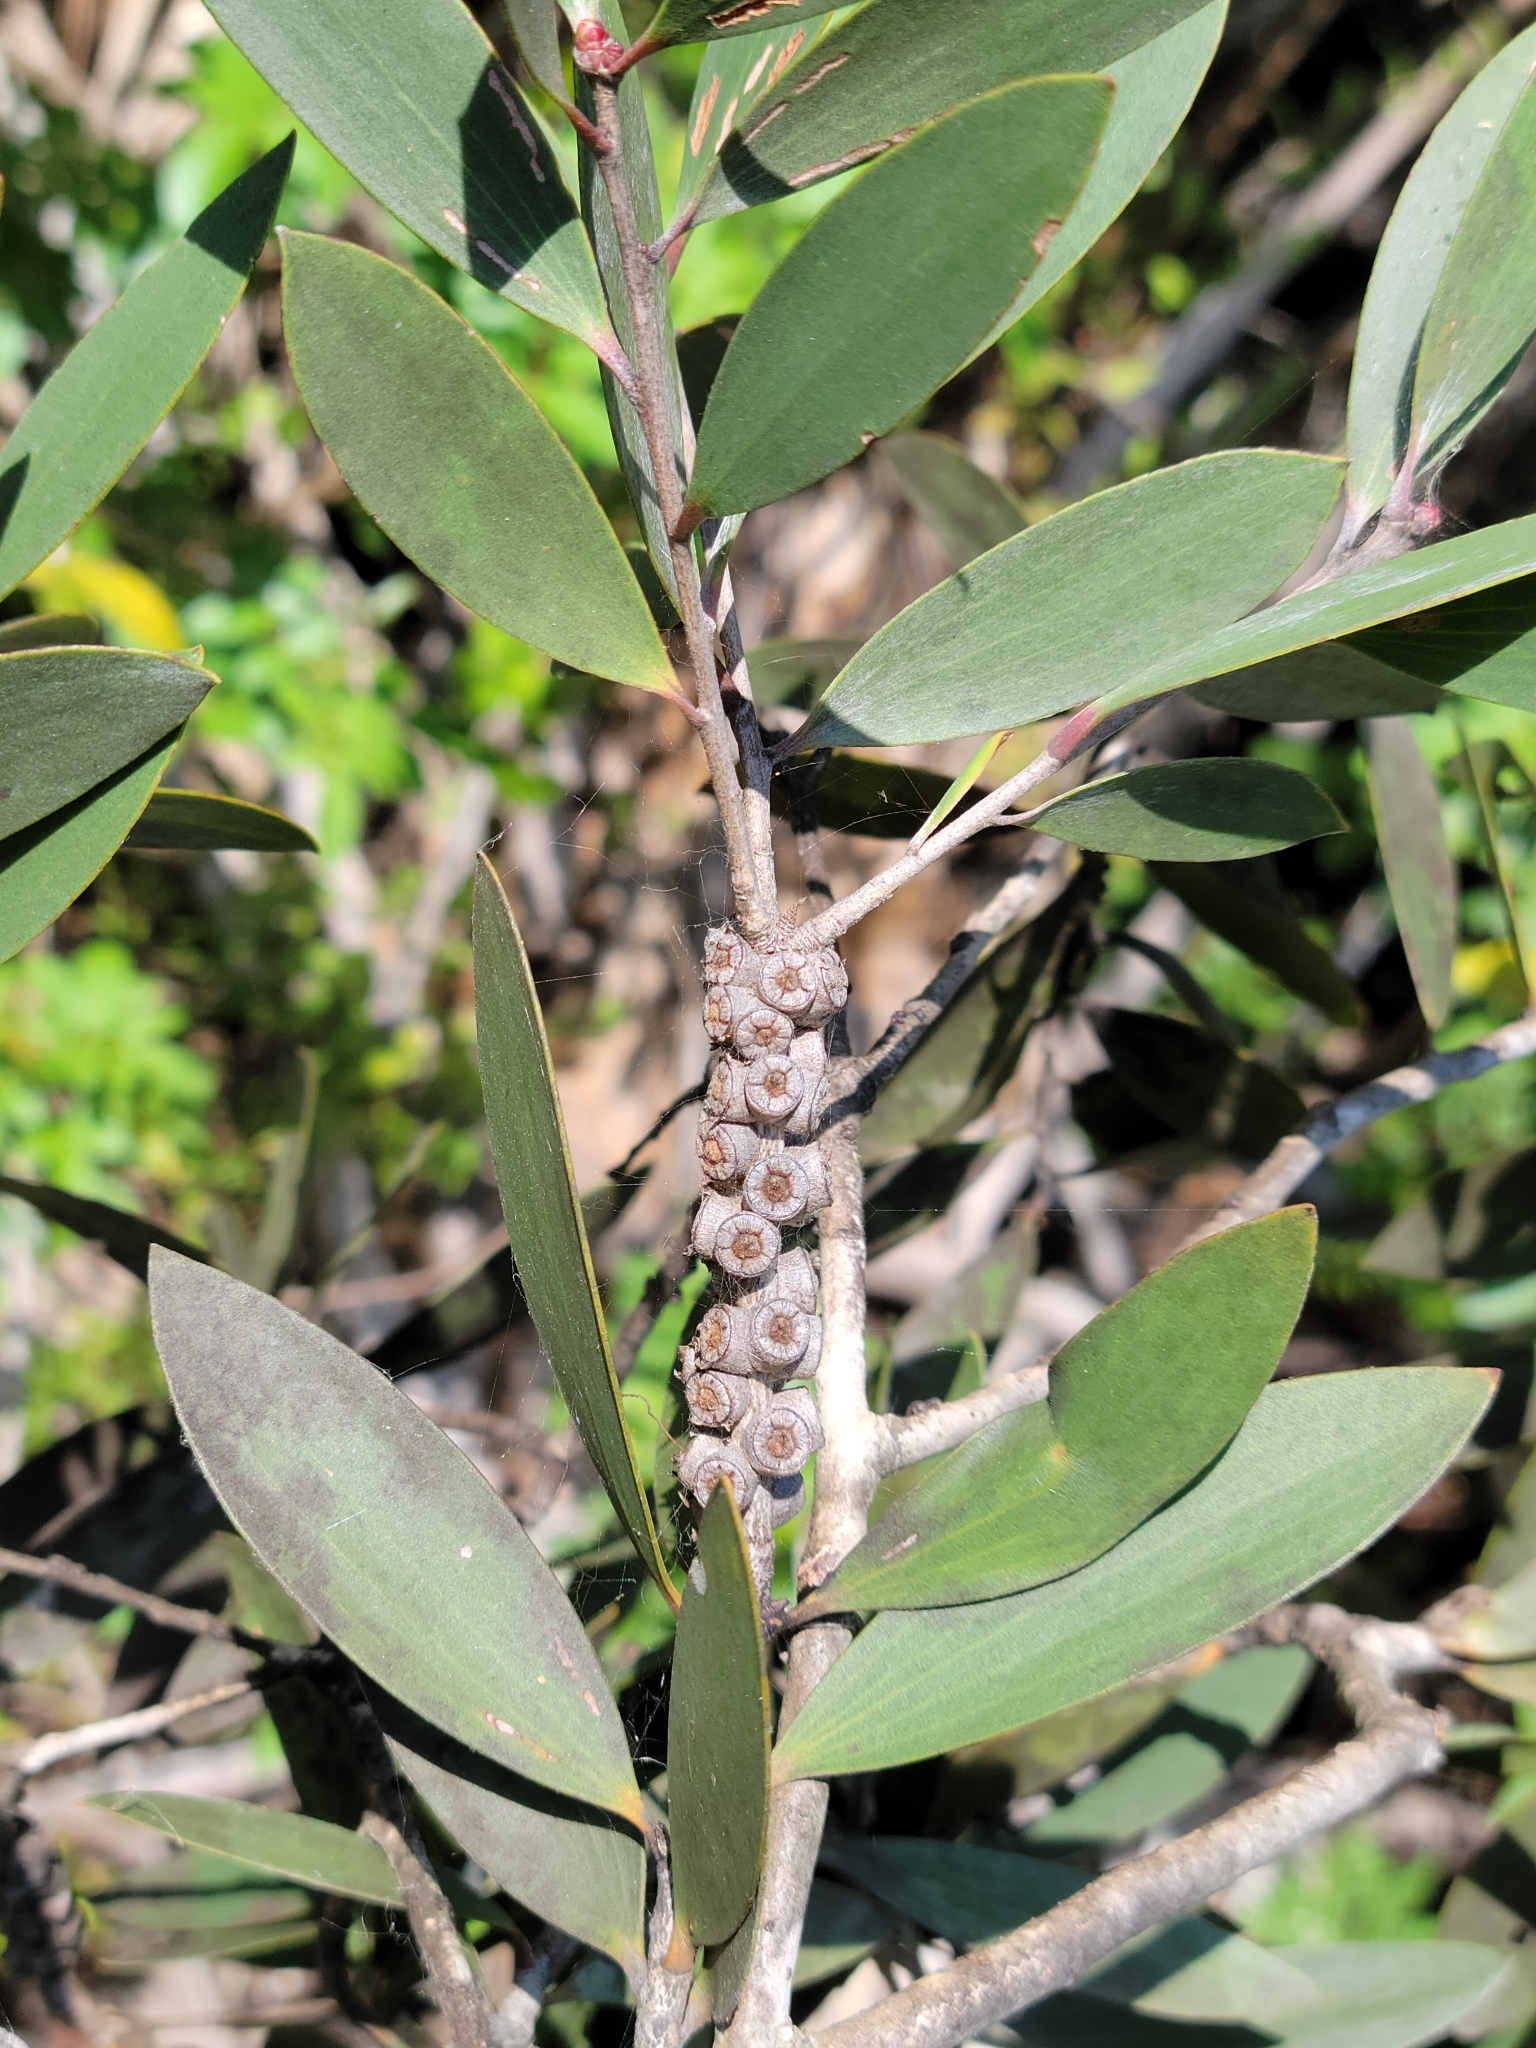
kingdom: Plantae
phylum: Tracheophyta
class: Magnoliopsida
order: Myrtales
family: Myrtaceae
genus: Melaleuca
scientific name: Melaleuca quinquenervia
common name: Punktree
